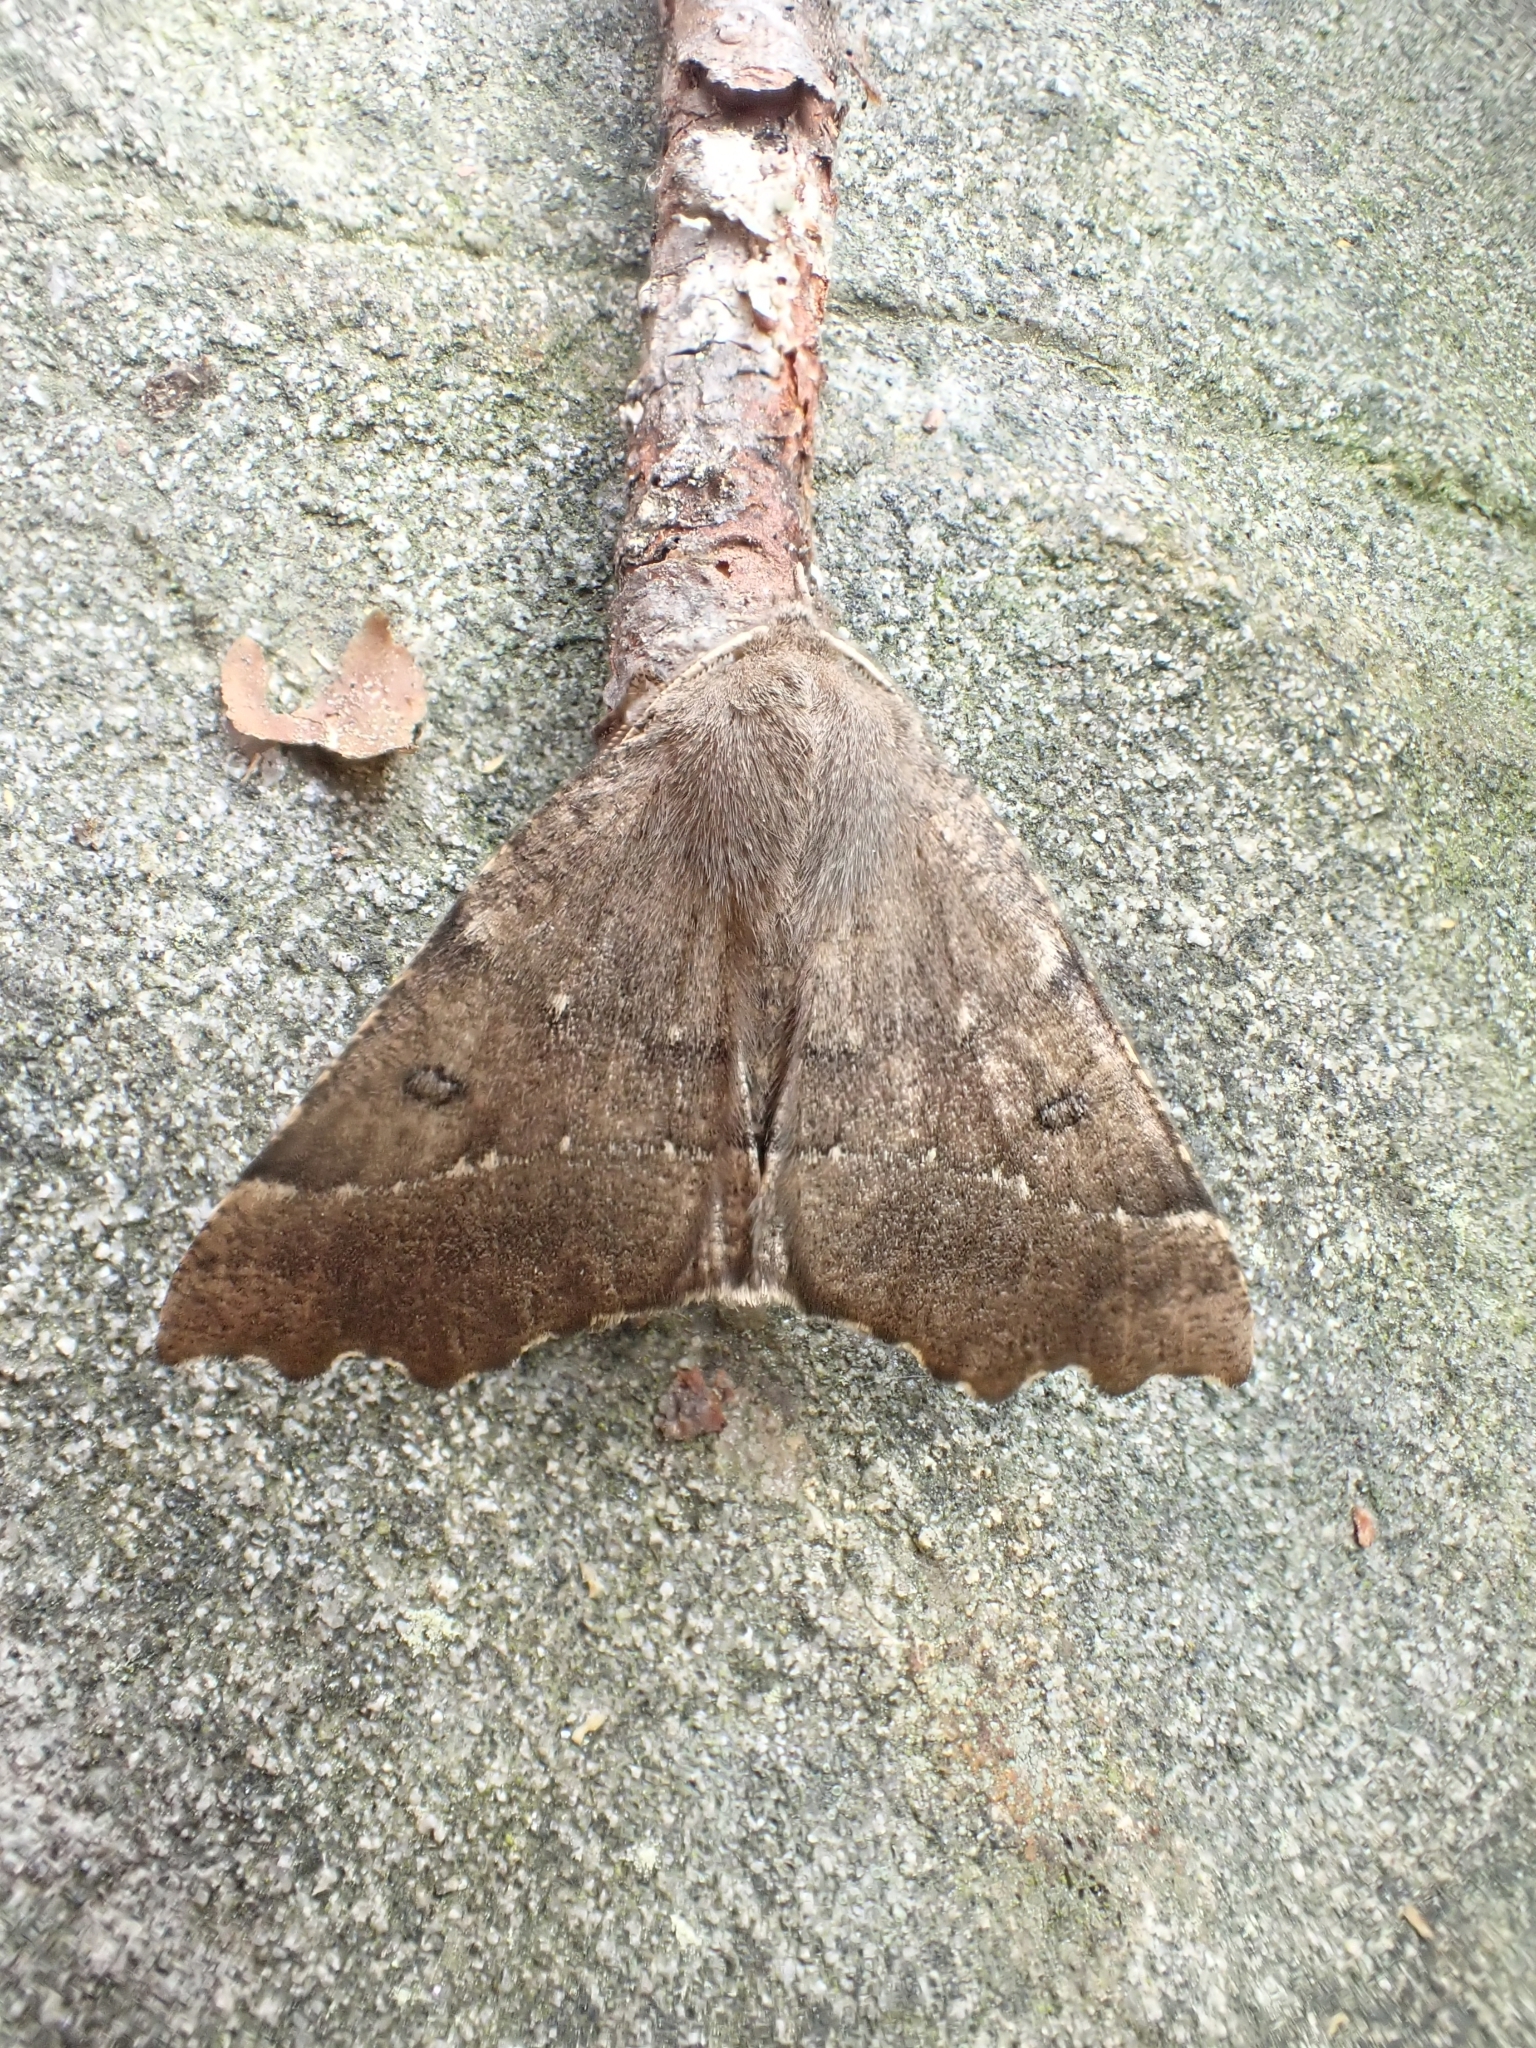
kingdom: Animalia
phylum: Arthropoda
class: Insecta
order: Lepidoptera
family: Geometridae
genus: Odontopera
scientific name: Odontopera bidentata
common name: Scalloped hazel
